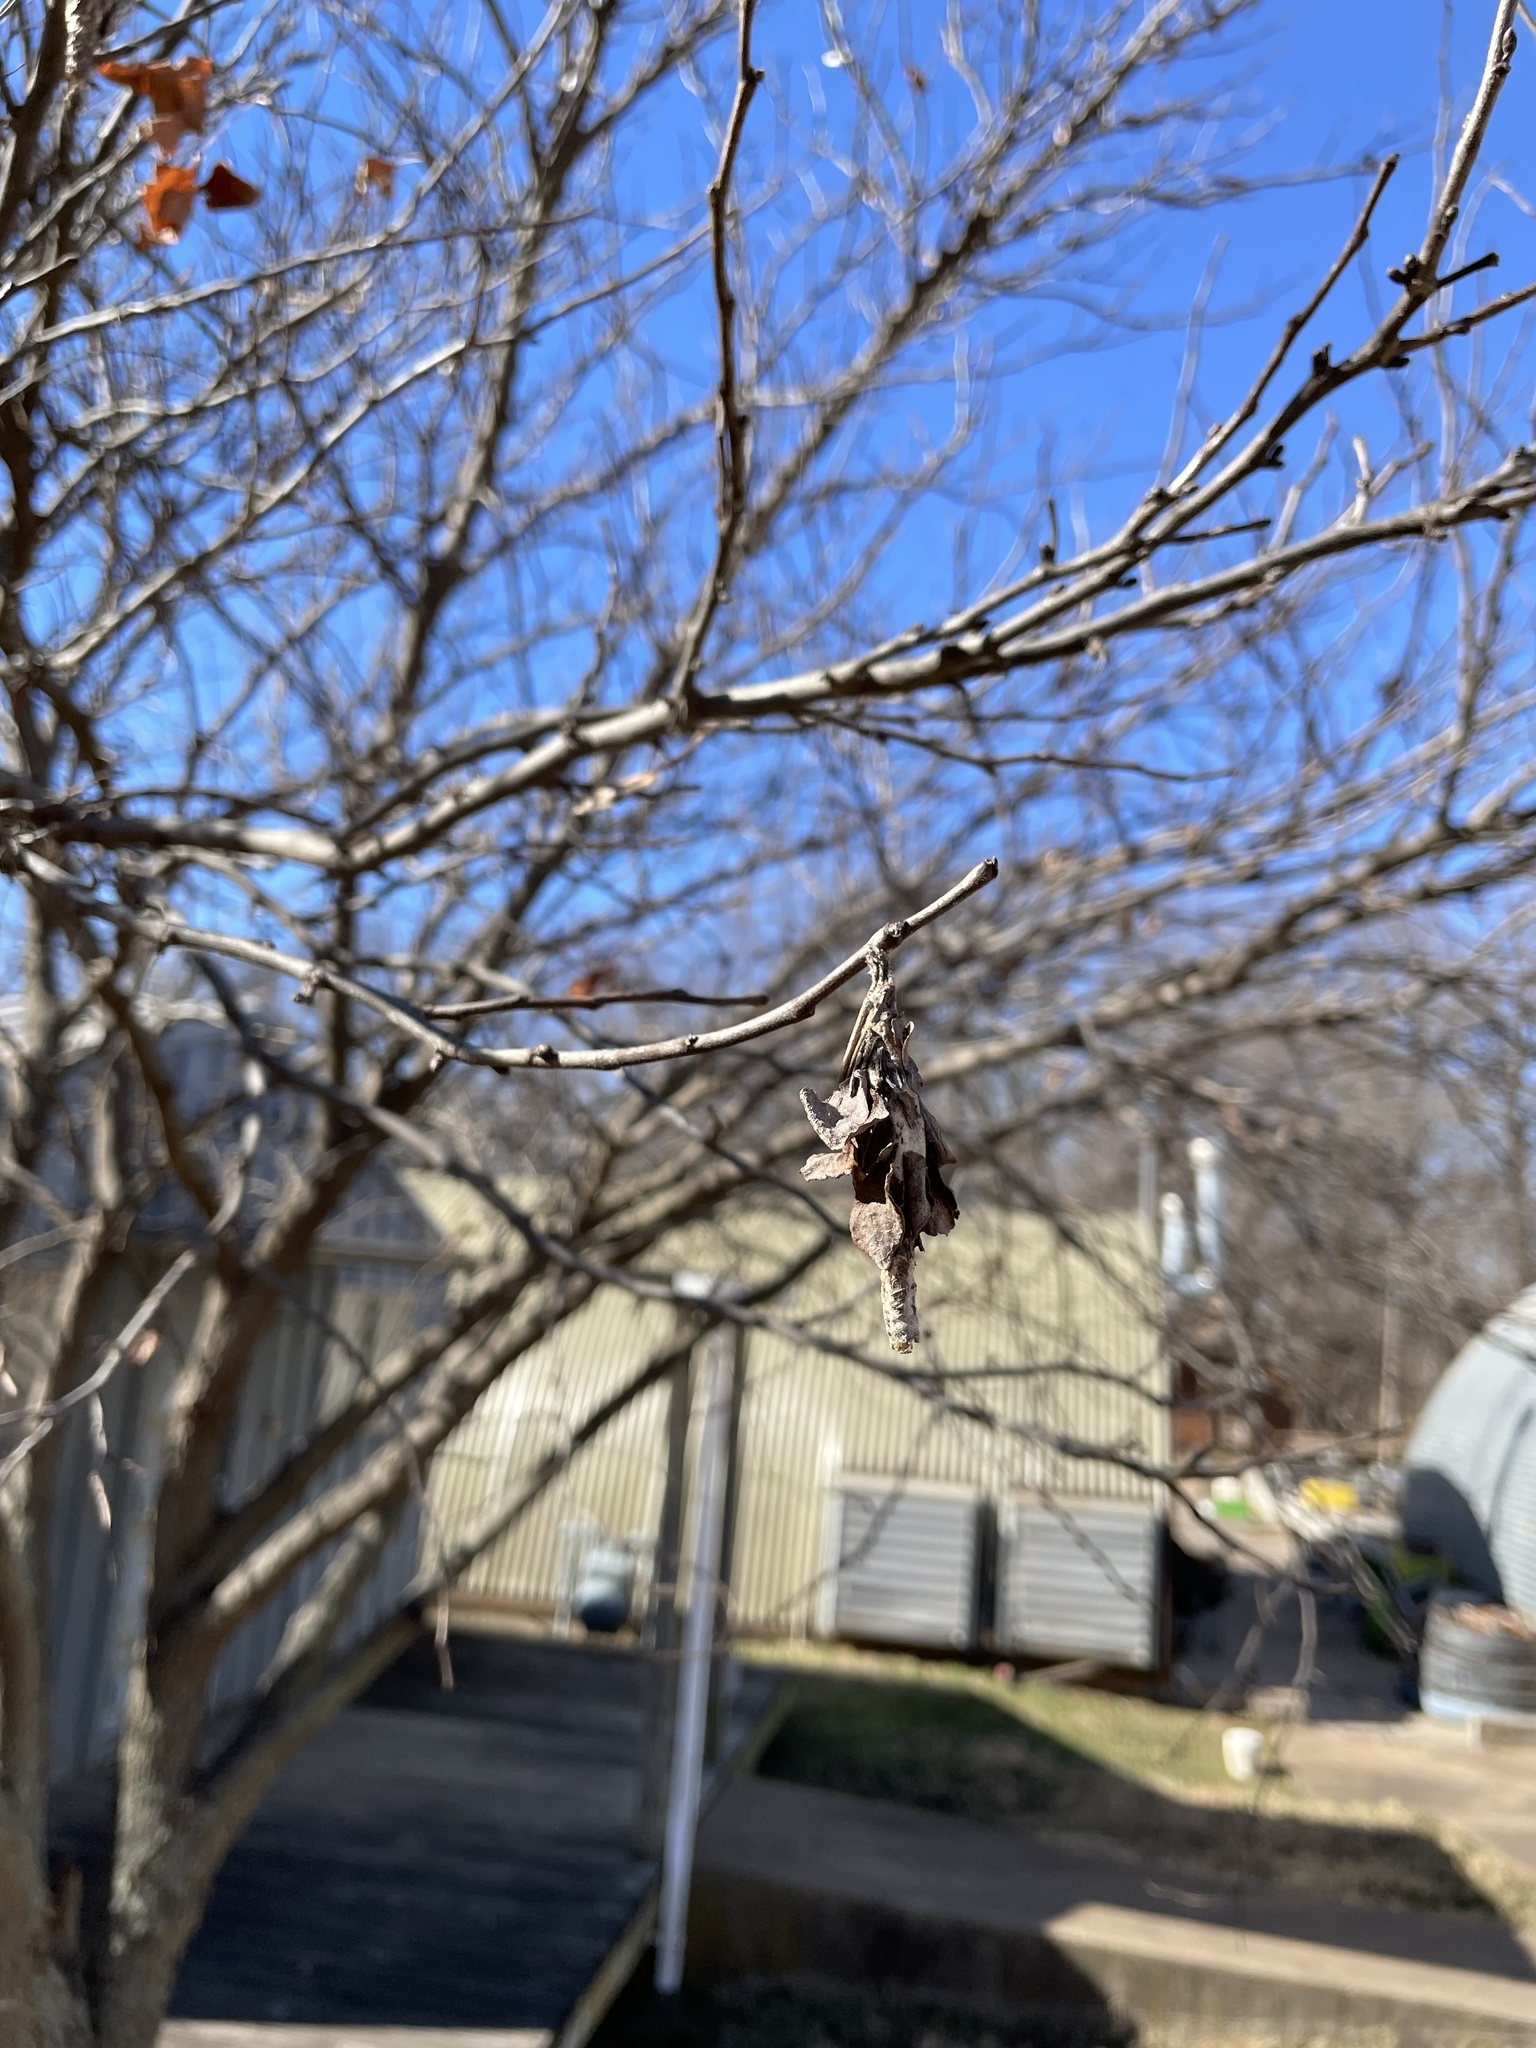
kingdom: Animalia
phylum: Arthropoda
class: Insecta
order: Lepidoptera
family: Psychidae
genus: Thyridopteryx
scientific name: Thyridopteryx ephemeraeformis
